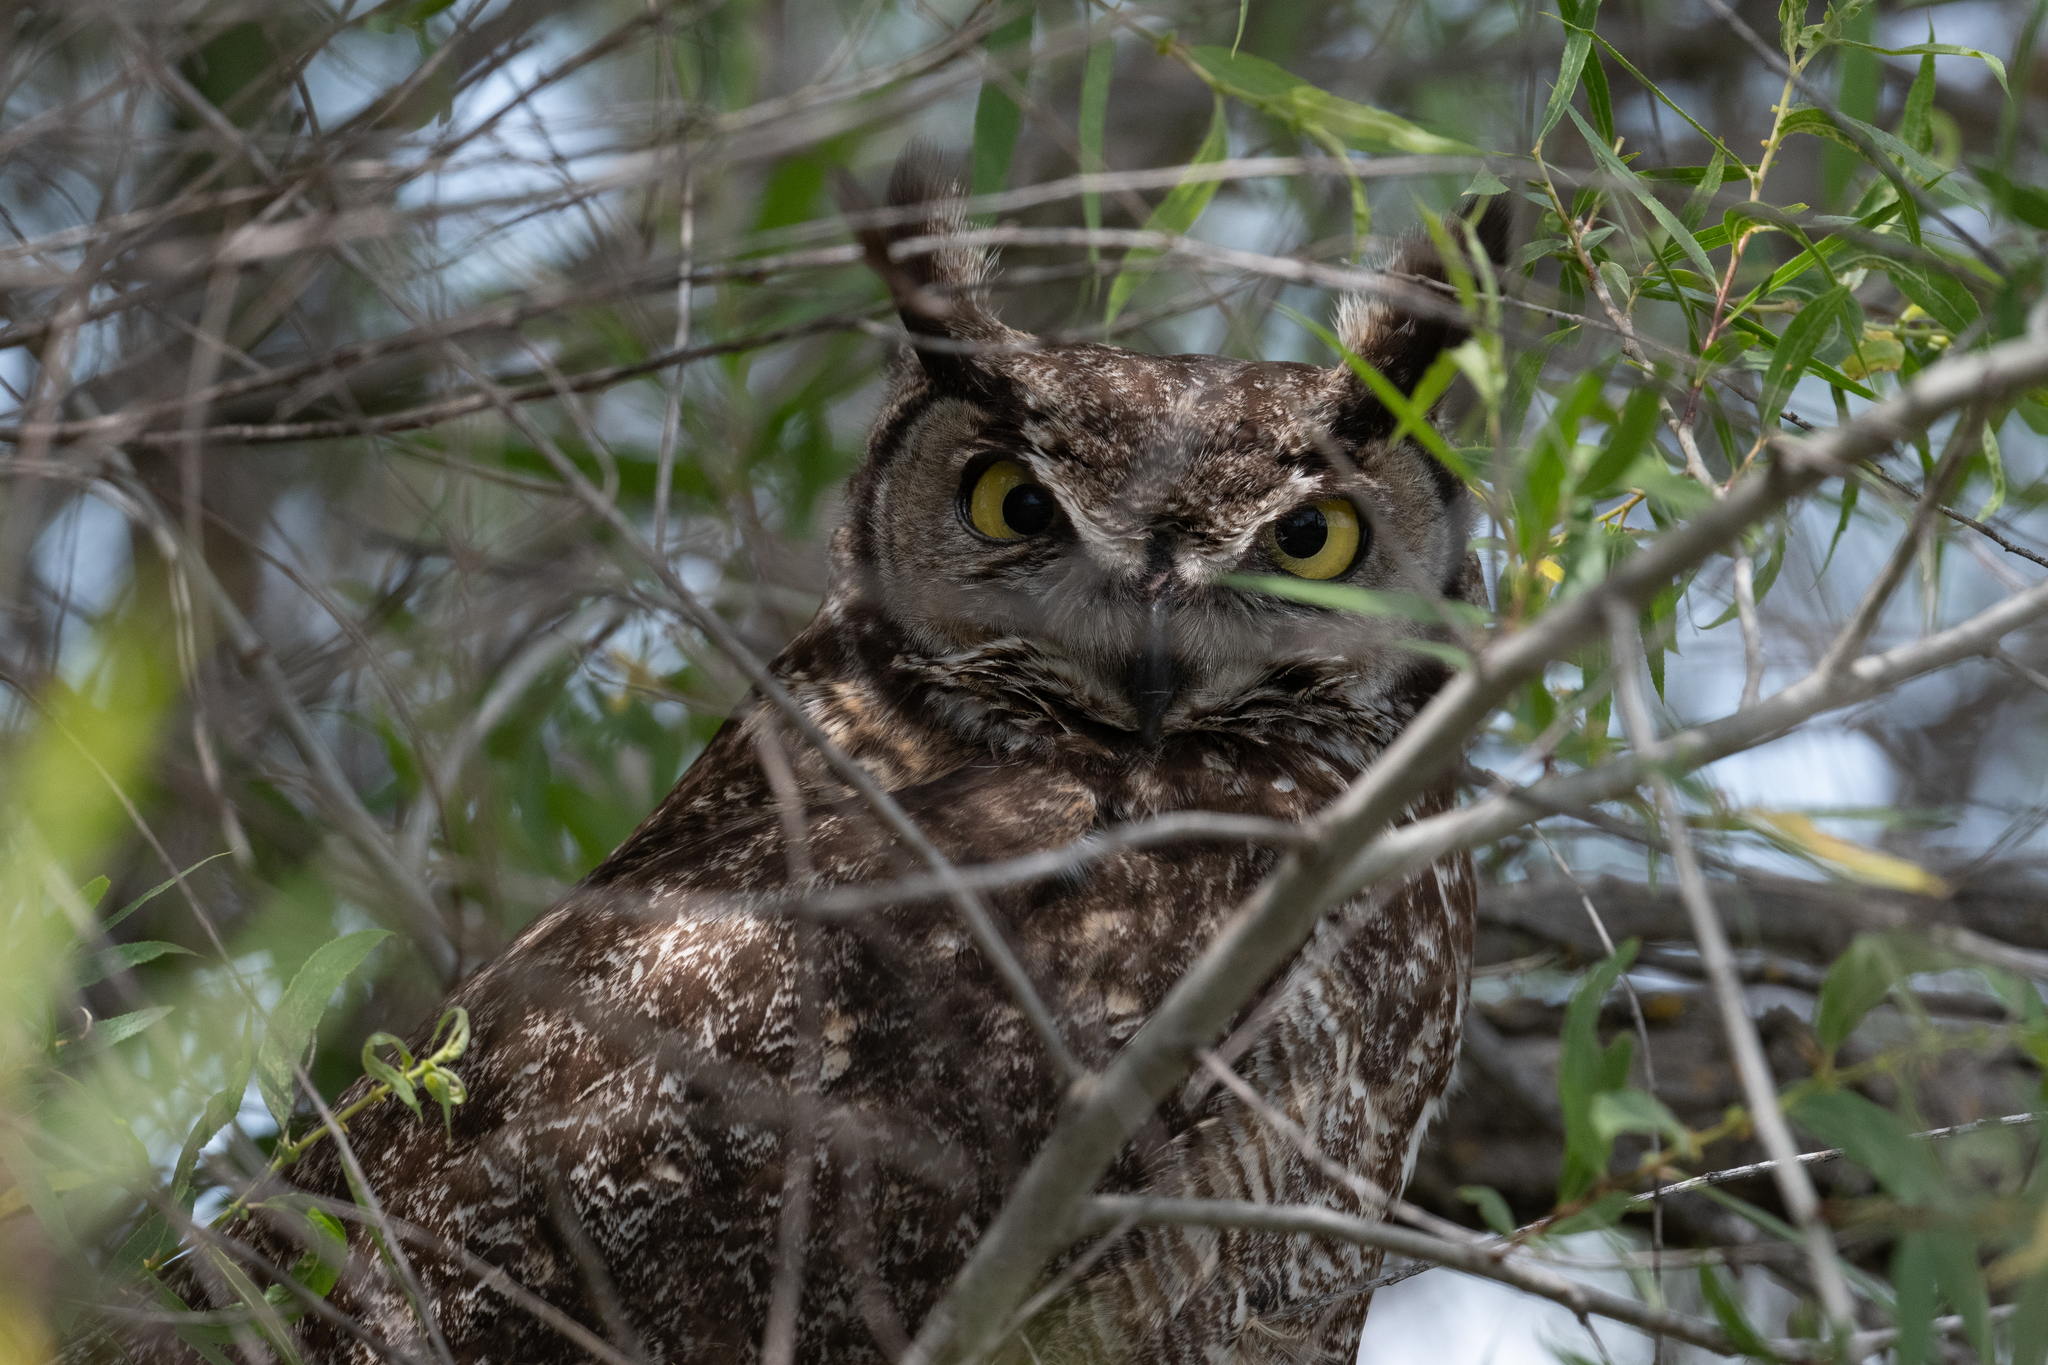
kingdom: Animalia
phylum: Chordata
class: Aves
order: Strigiformes
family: Strigidae
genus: Bubo
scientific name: Bubo virginianus
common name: Great horned owl
